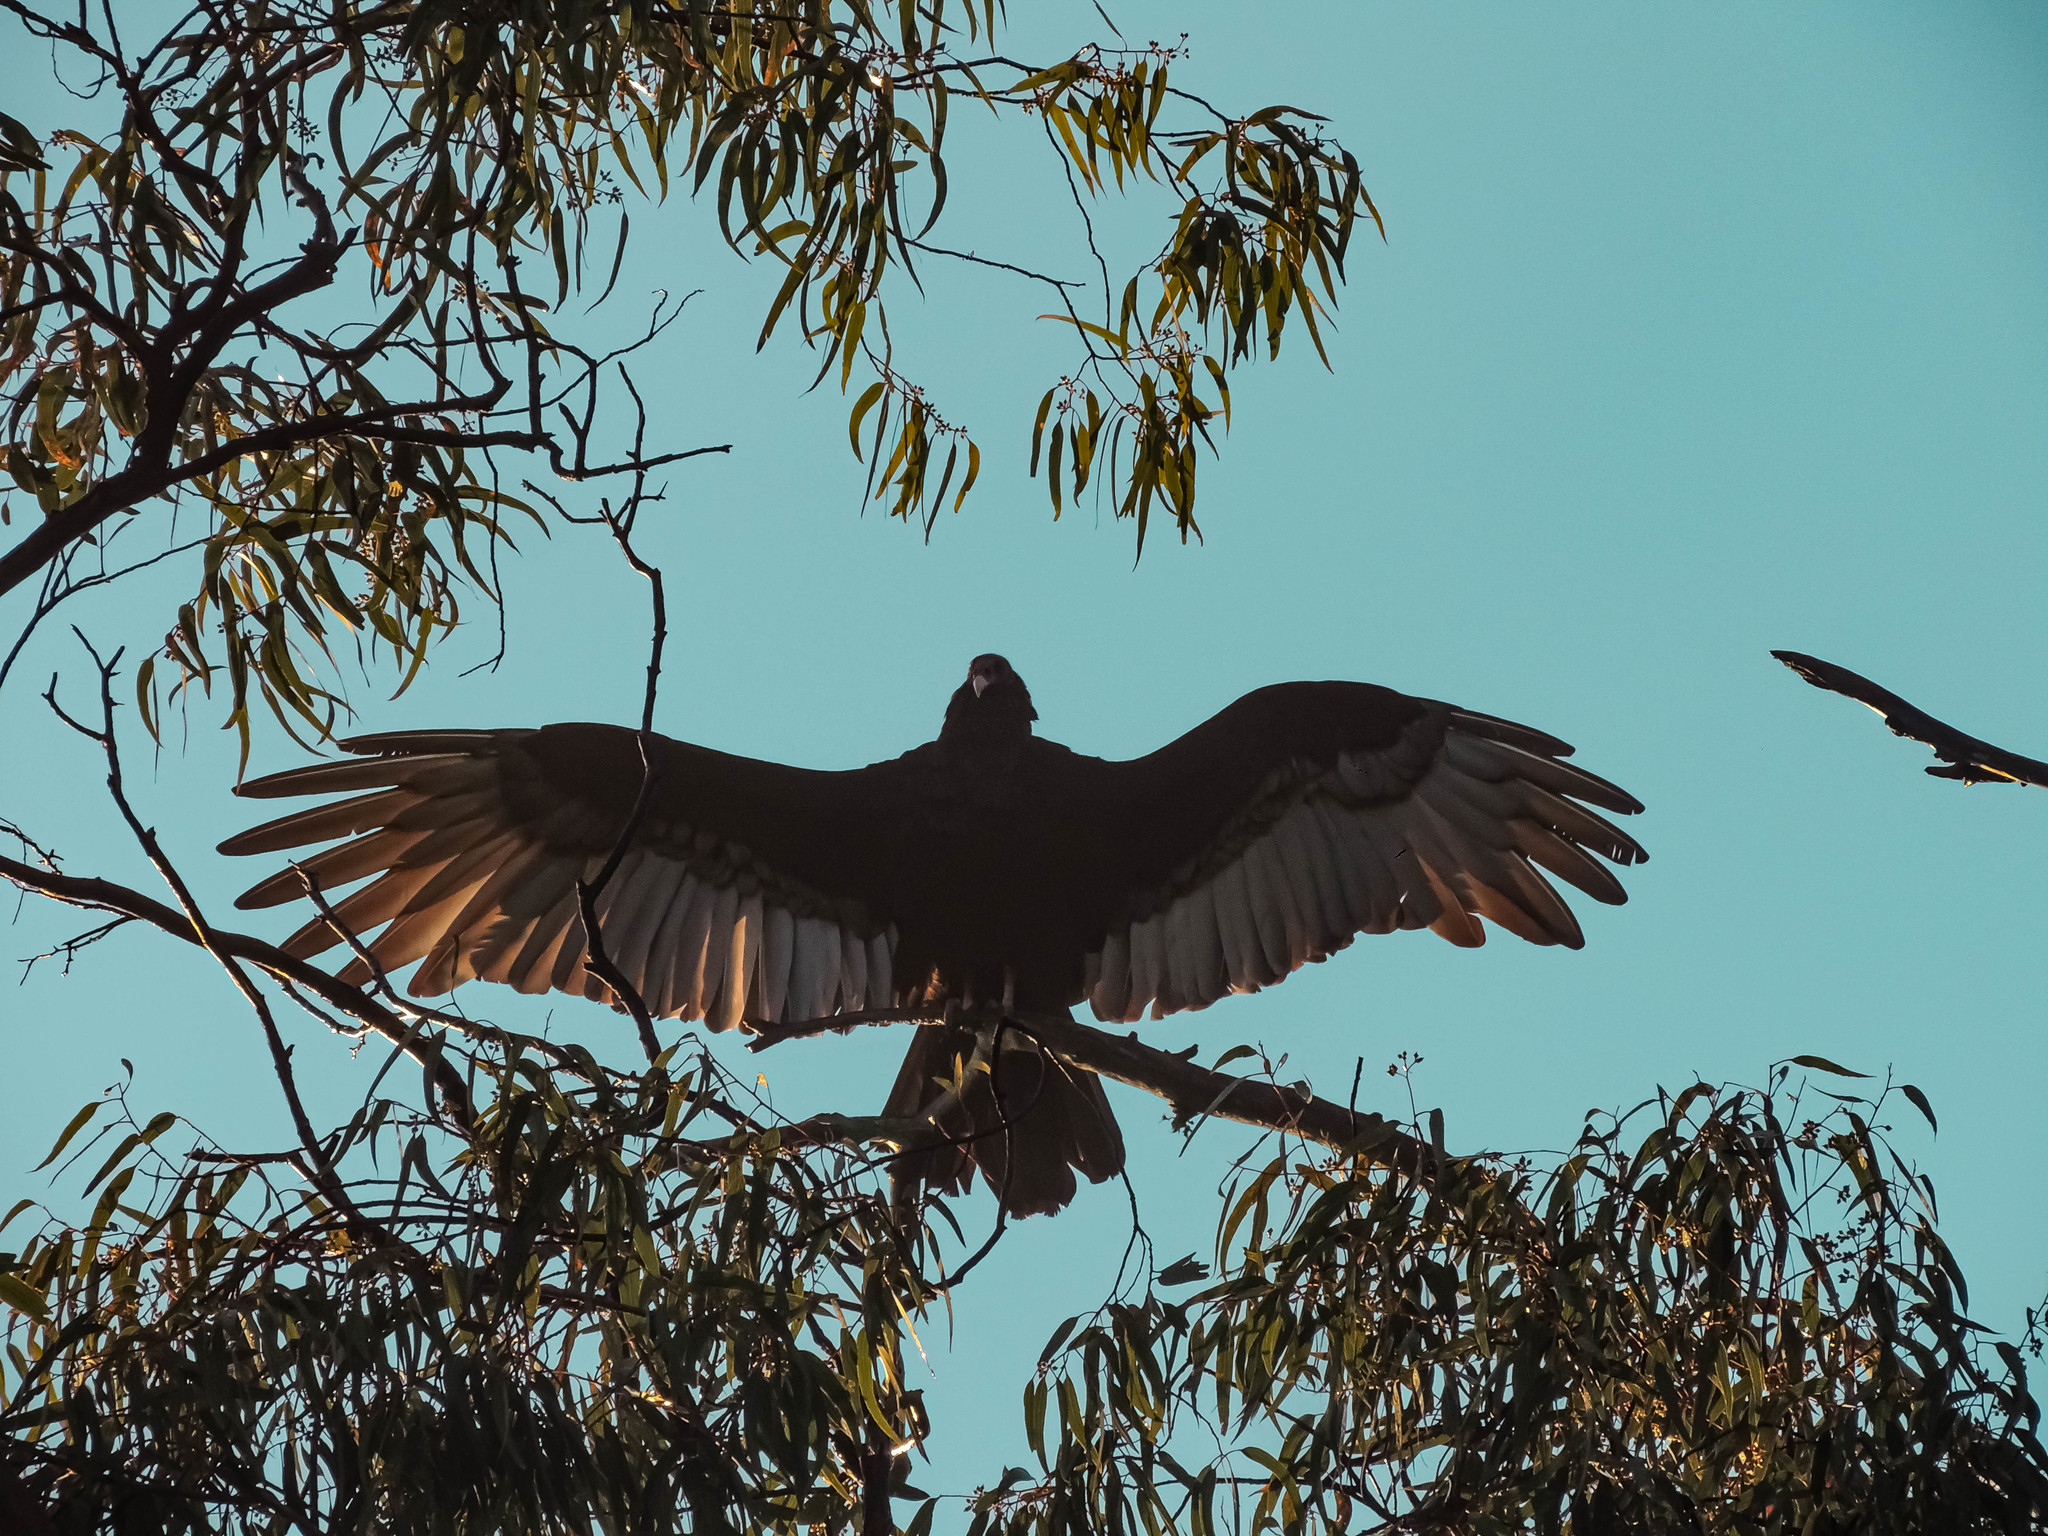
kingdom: Animalia
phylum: Chordata
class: Aves
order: Accipitriformes
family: Cathartidae
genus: Cathartes
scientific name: Cathartes aura
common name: Turkey vulture
